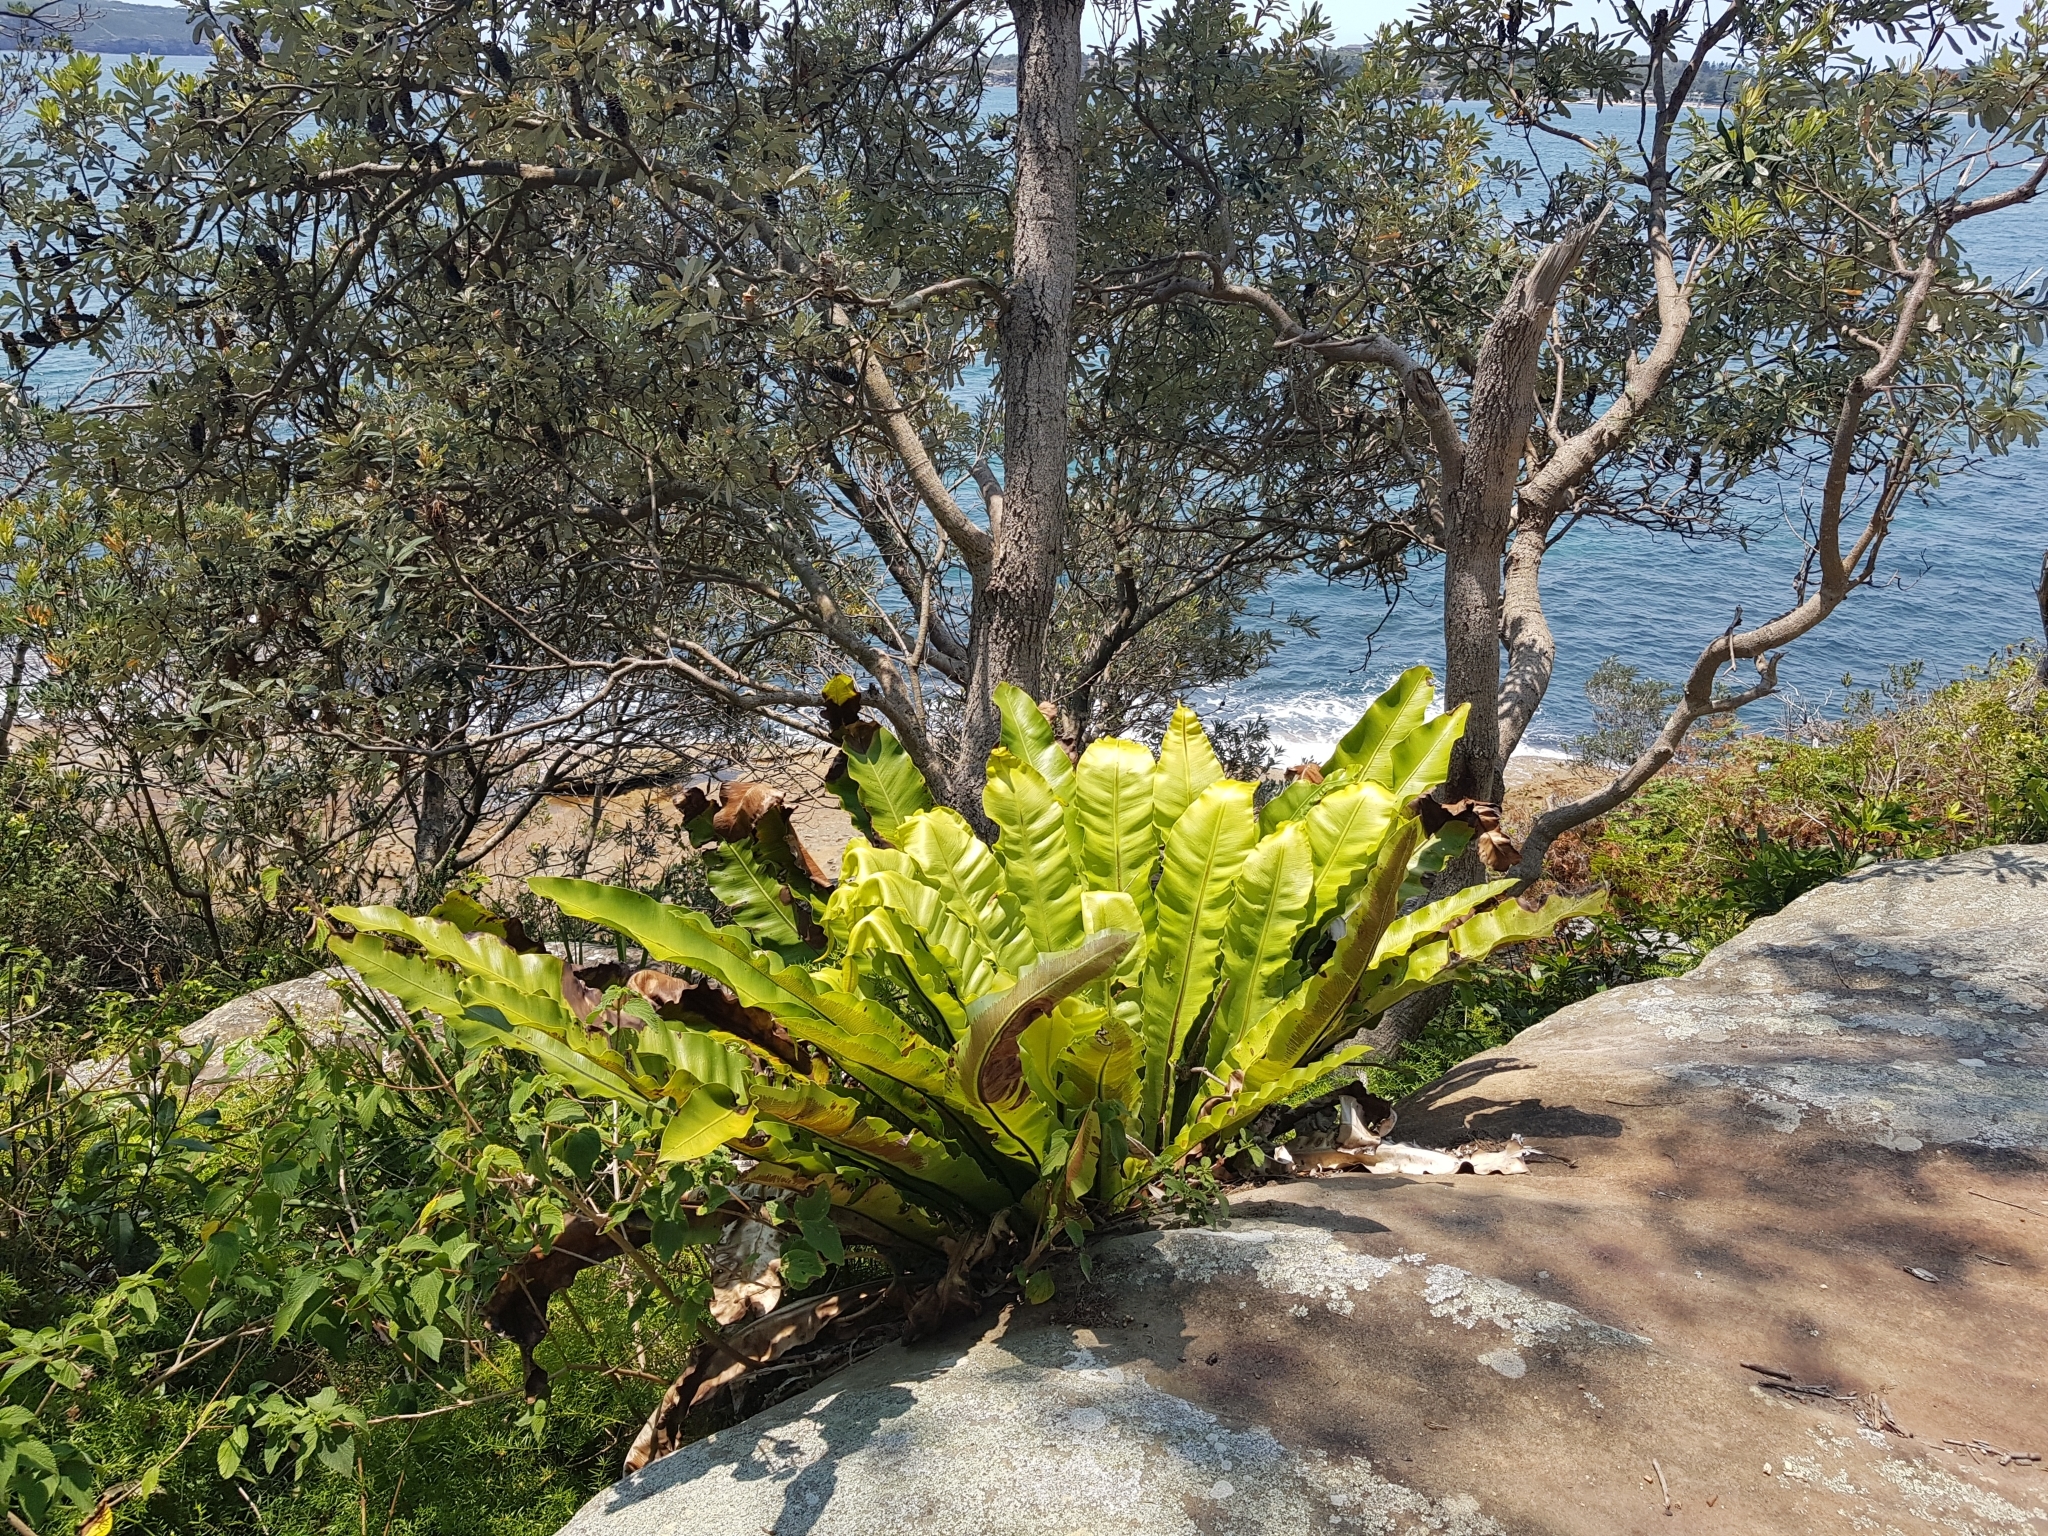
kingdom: Plantae
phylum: Tracheophyta
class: Polypodiopsida
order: Polypodiales
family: Aspleniaceae
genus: Asplenium
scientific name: Asplenium australasicum
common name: Bird's-nest fern
